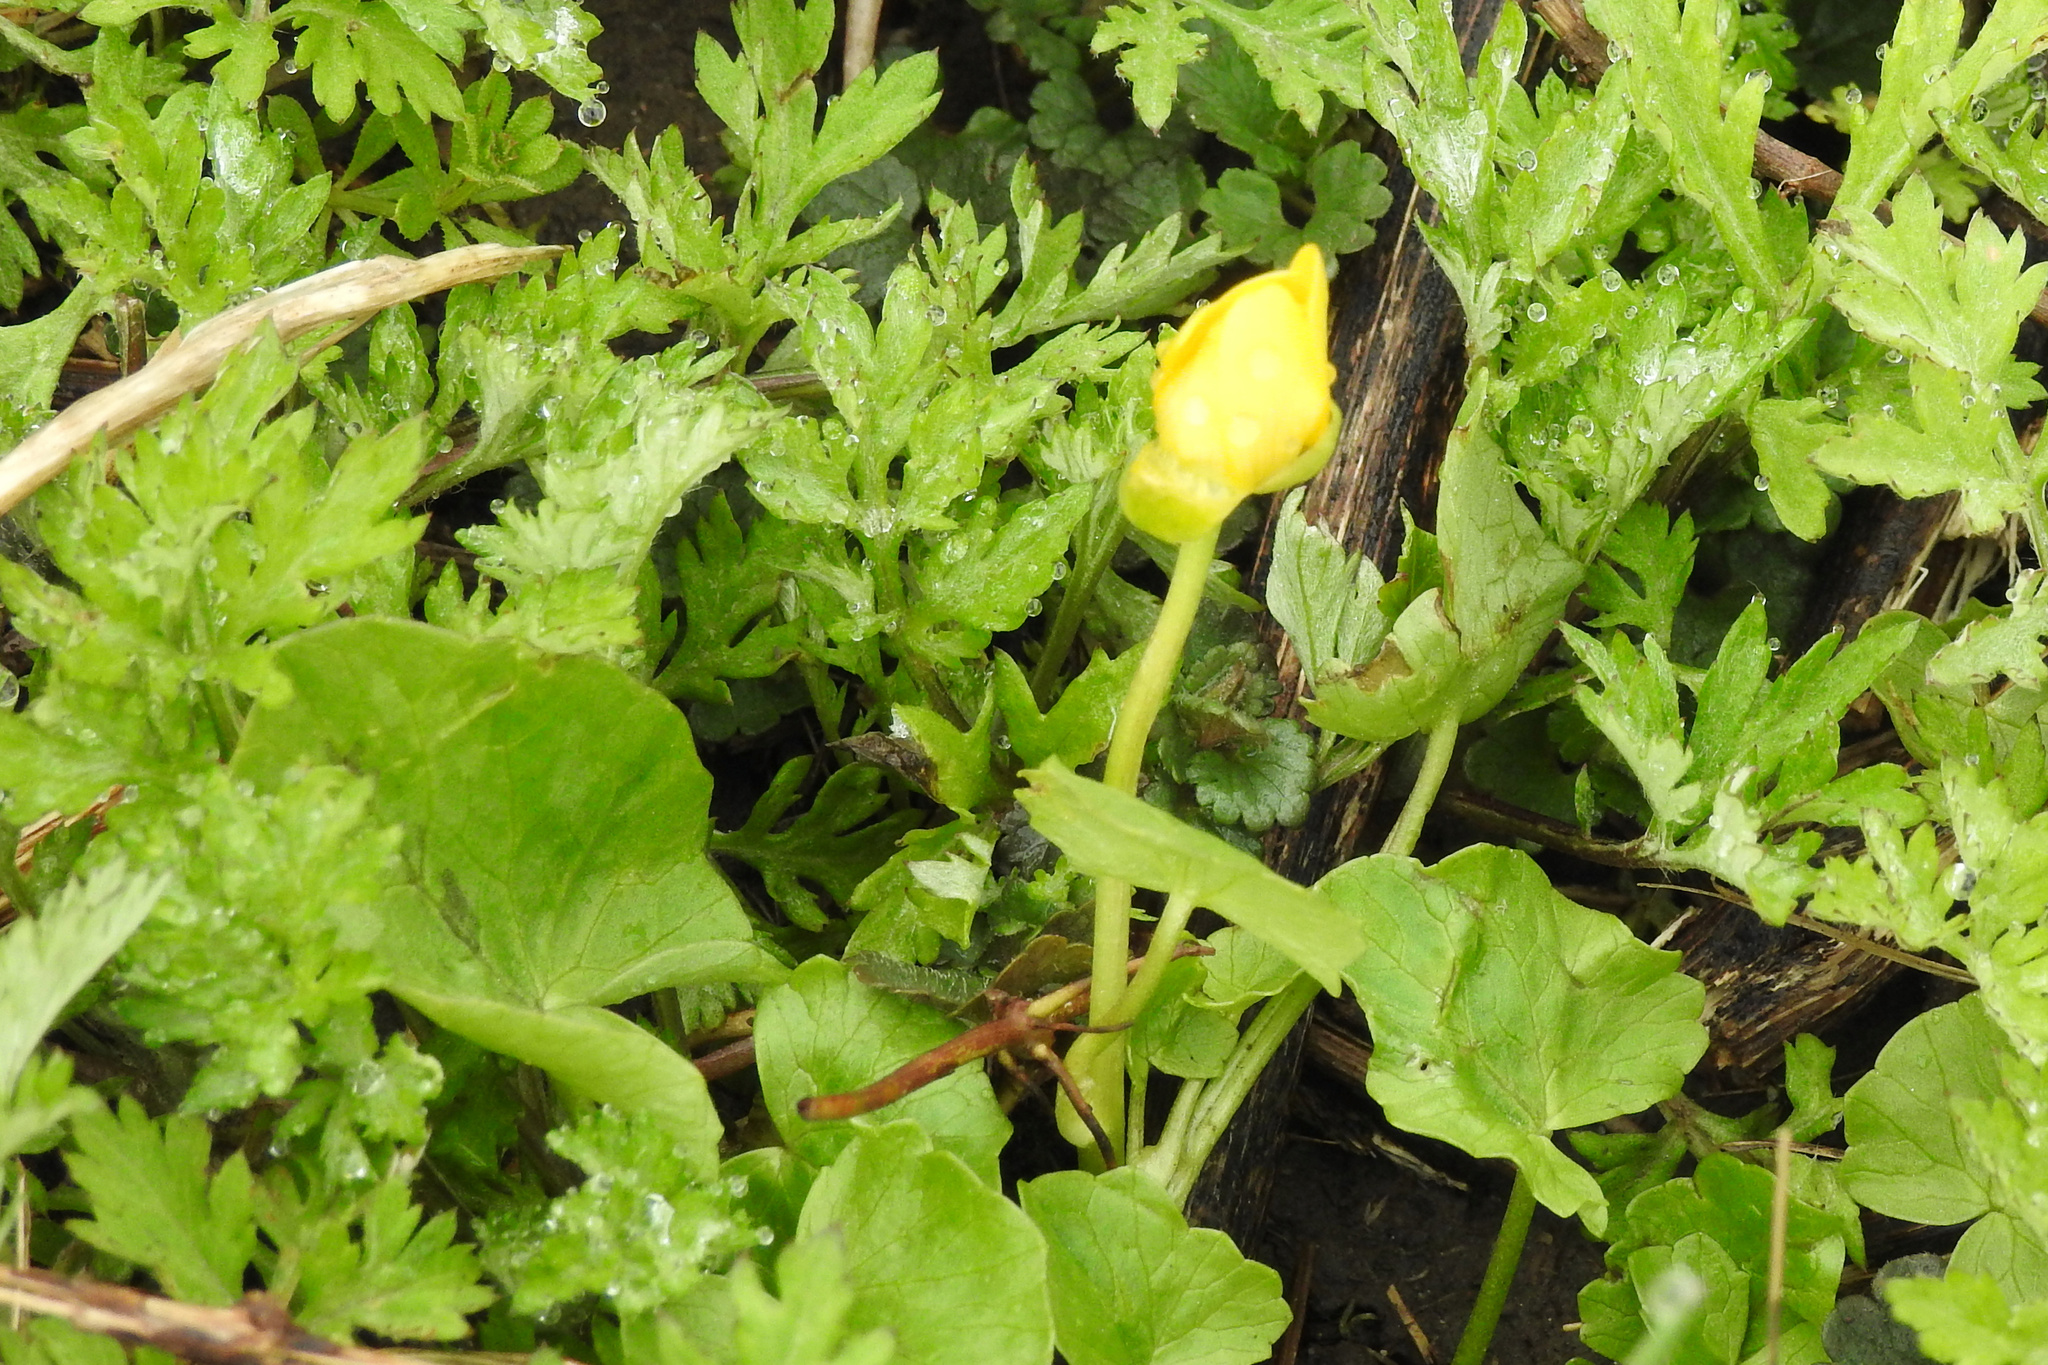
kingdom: Plantae
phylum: Tracheophyta
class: Magnoliopsida
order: Ranunculales
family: Ranunculaceae
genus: Ficaria
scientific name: Ficaria verna
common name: Lesser celandine
